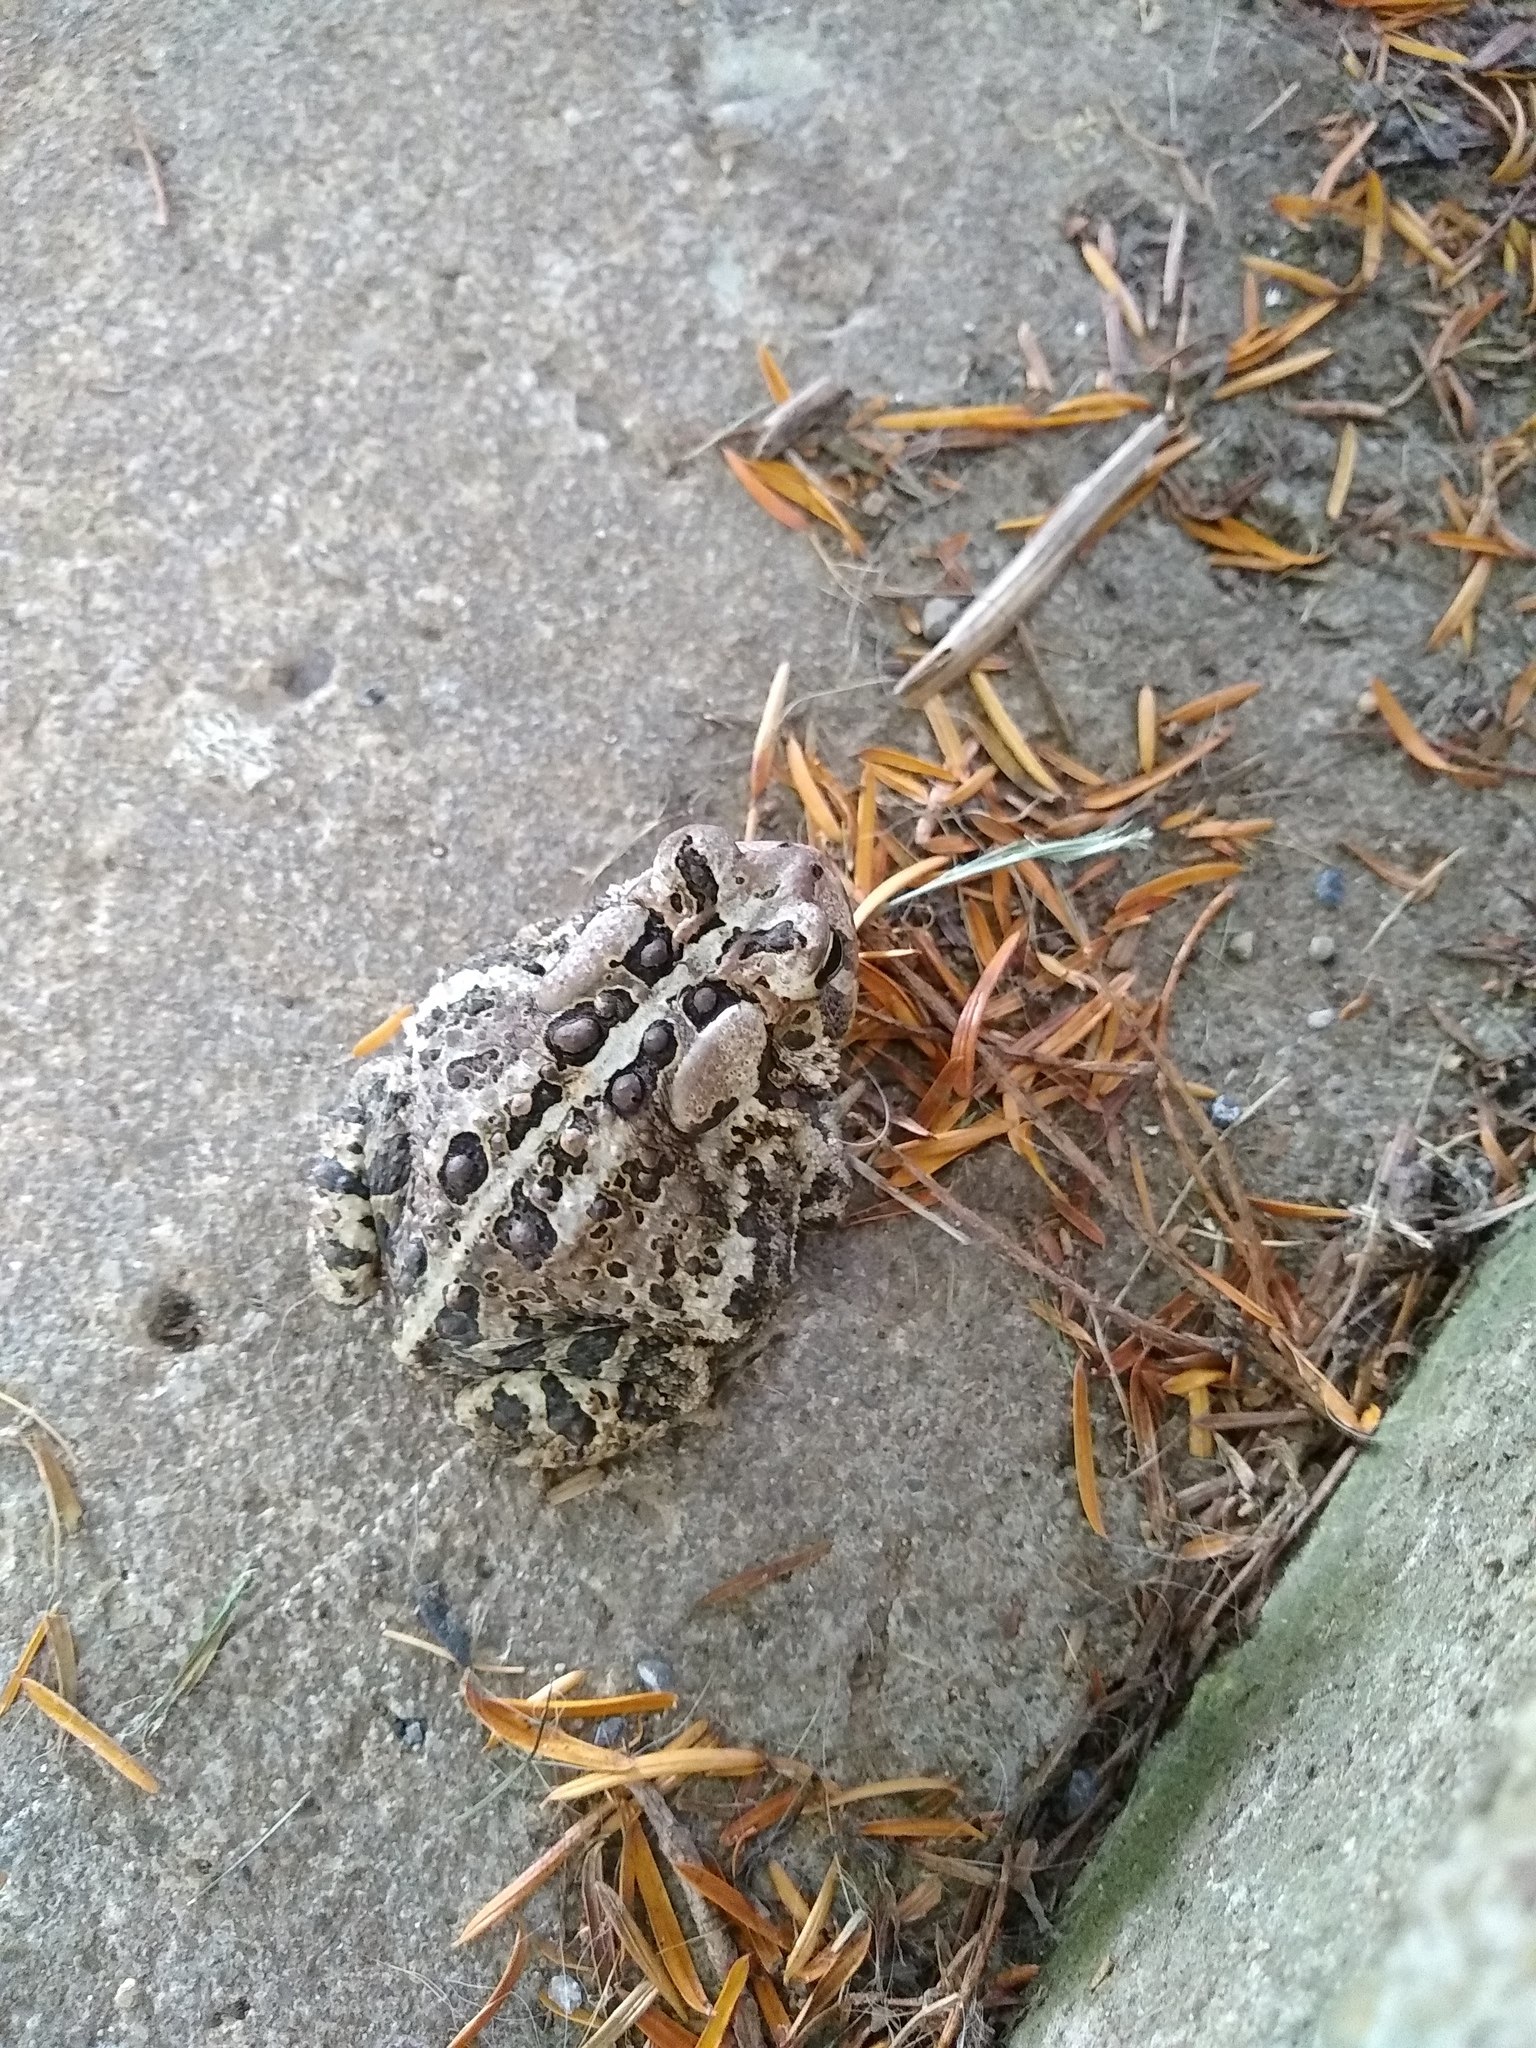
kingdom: Animalia
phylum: Chordata
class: Amphibia
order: Anura
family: Bufonidae
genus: Anaxyrus
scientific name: Anaxyrus americanus
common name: American toad
